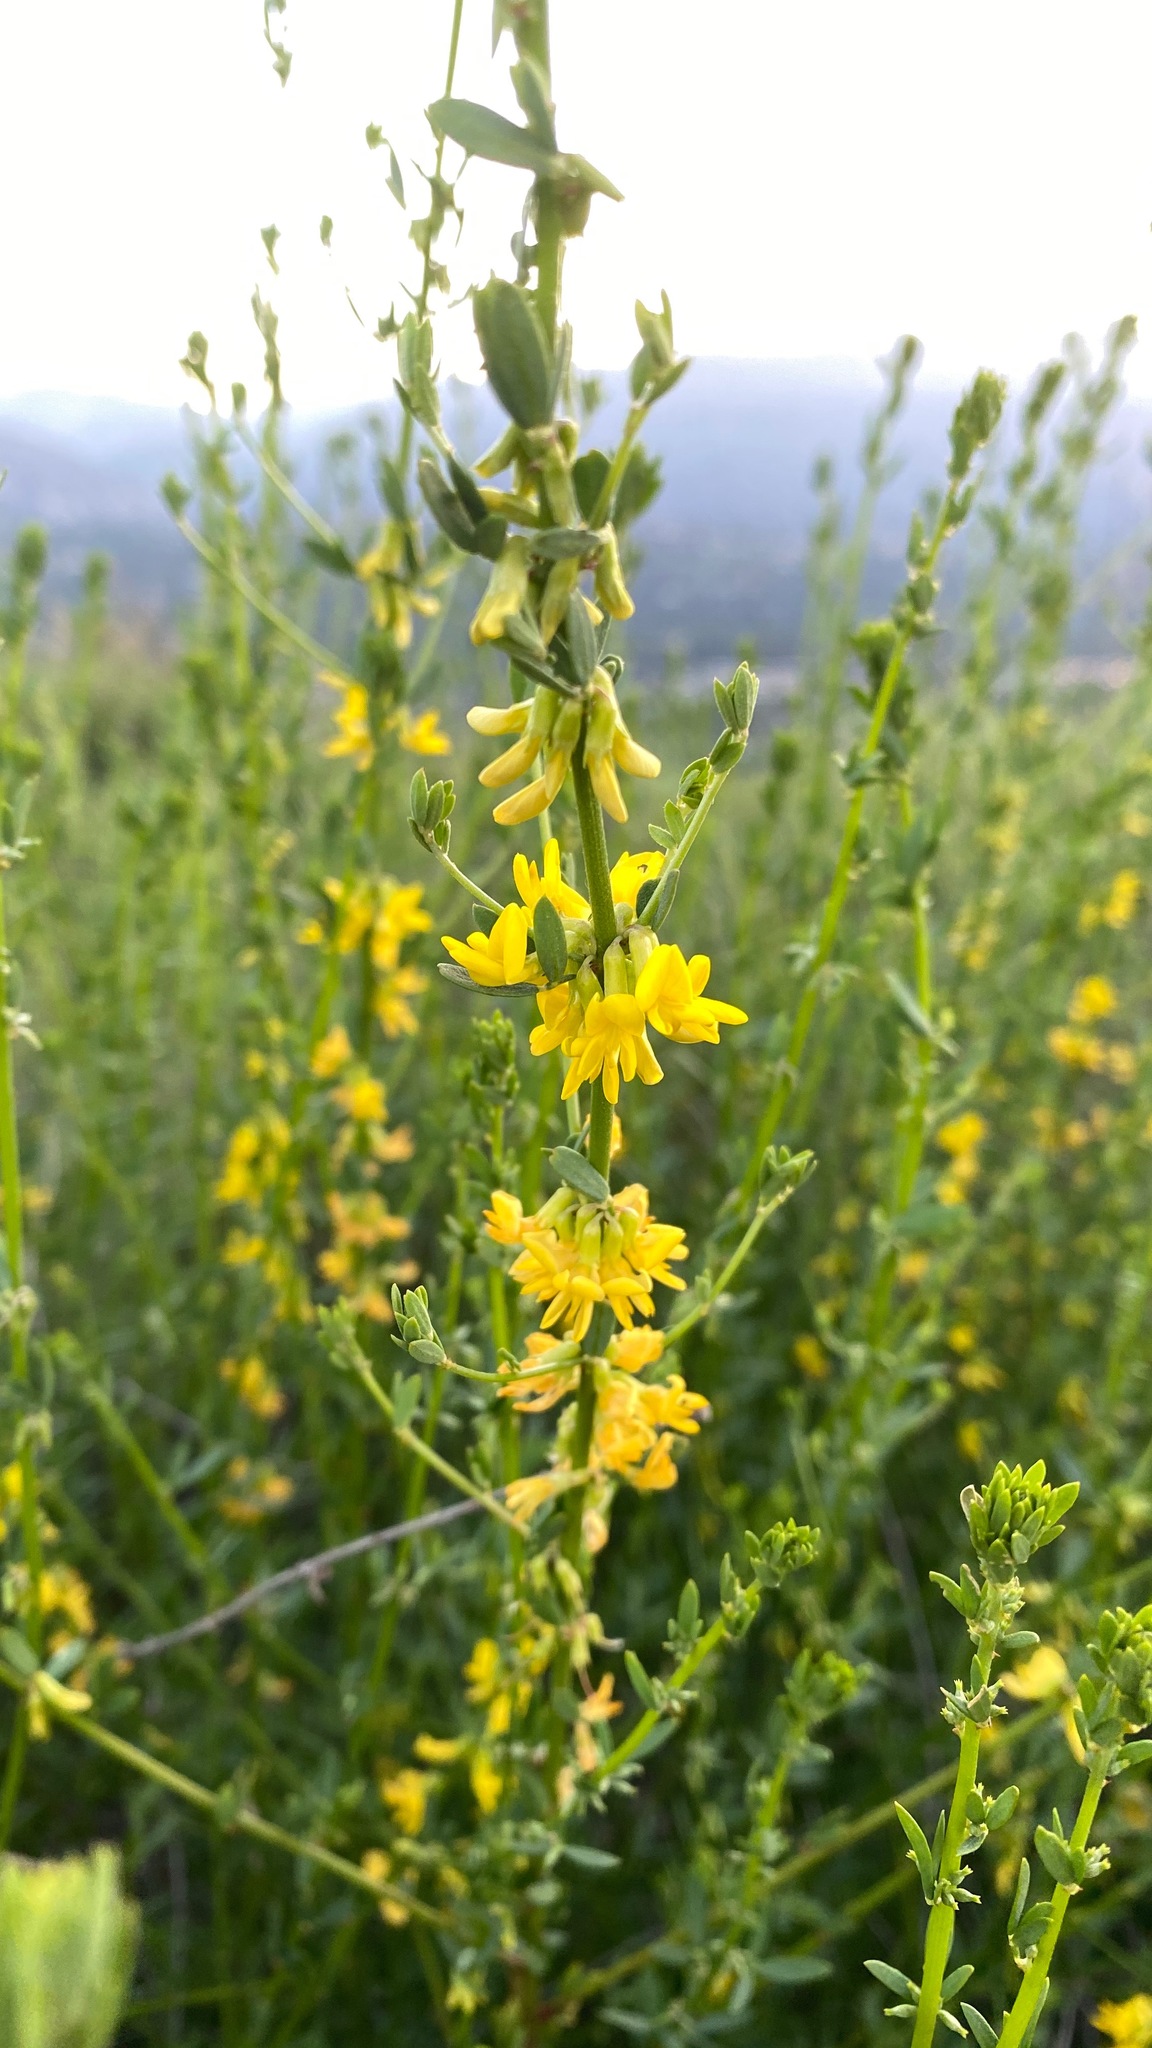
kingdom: Plantae
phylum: Tracheophyta
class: Magnoliopsida
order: Fabales
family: Fabaceae
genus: Acmispon
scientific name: Acmispon glaber
